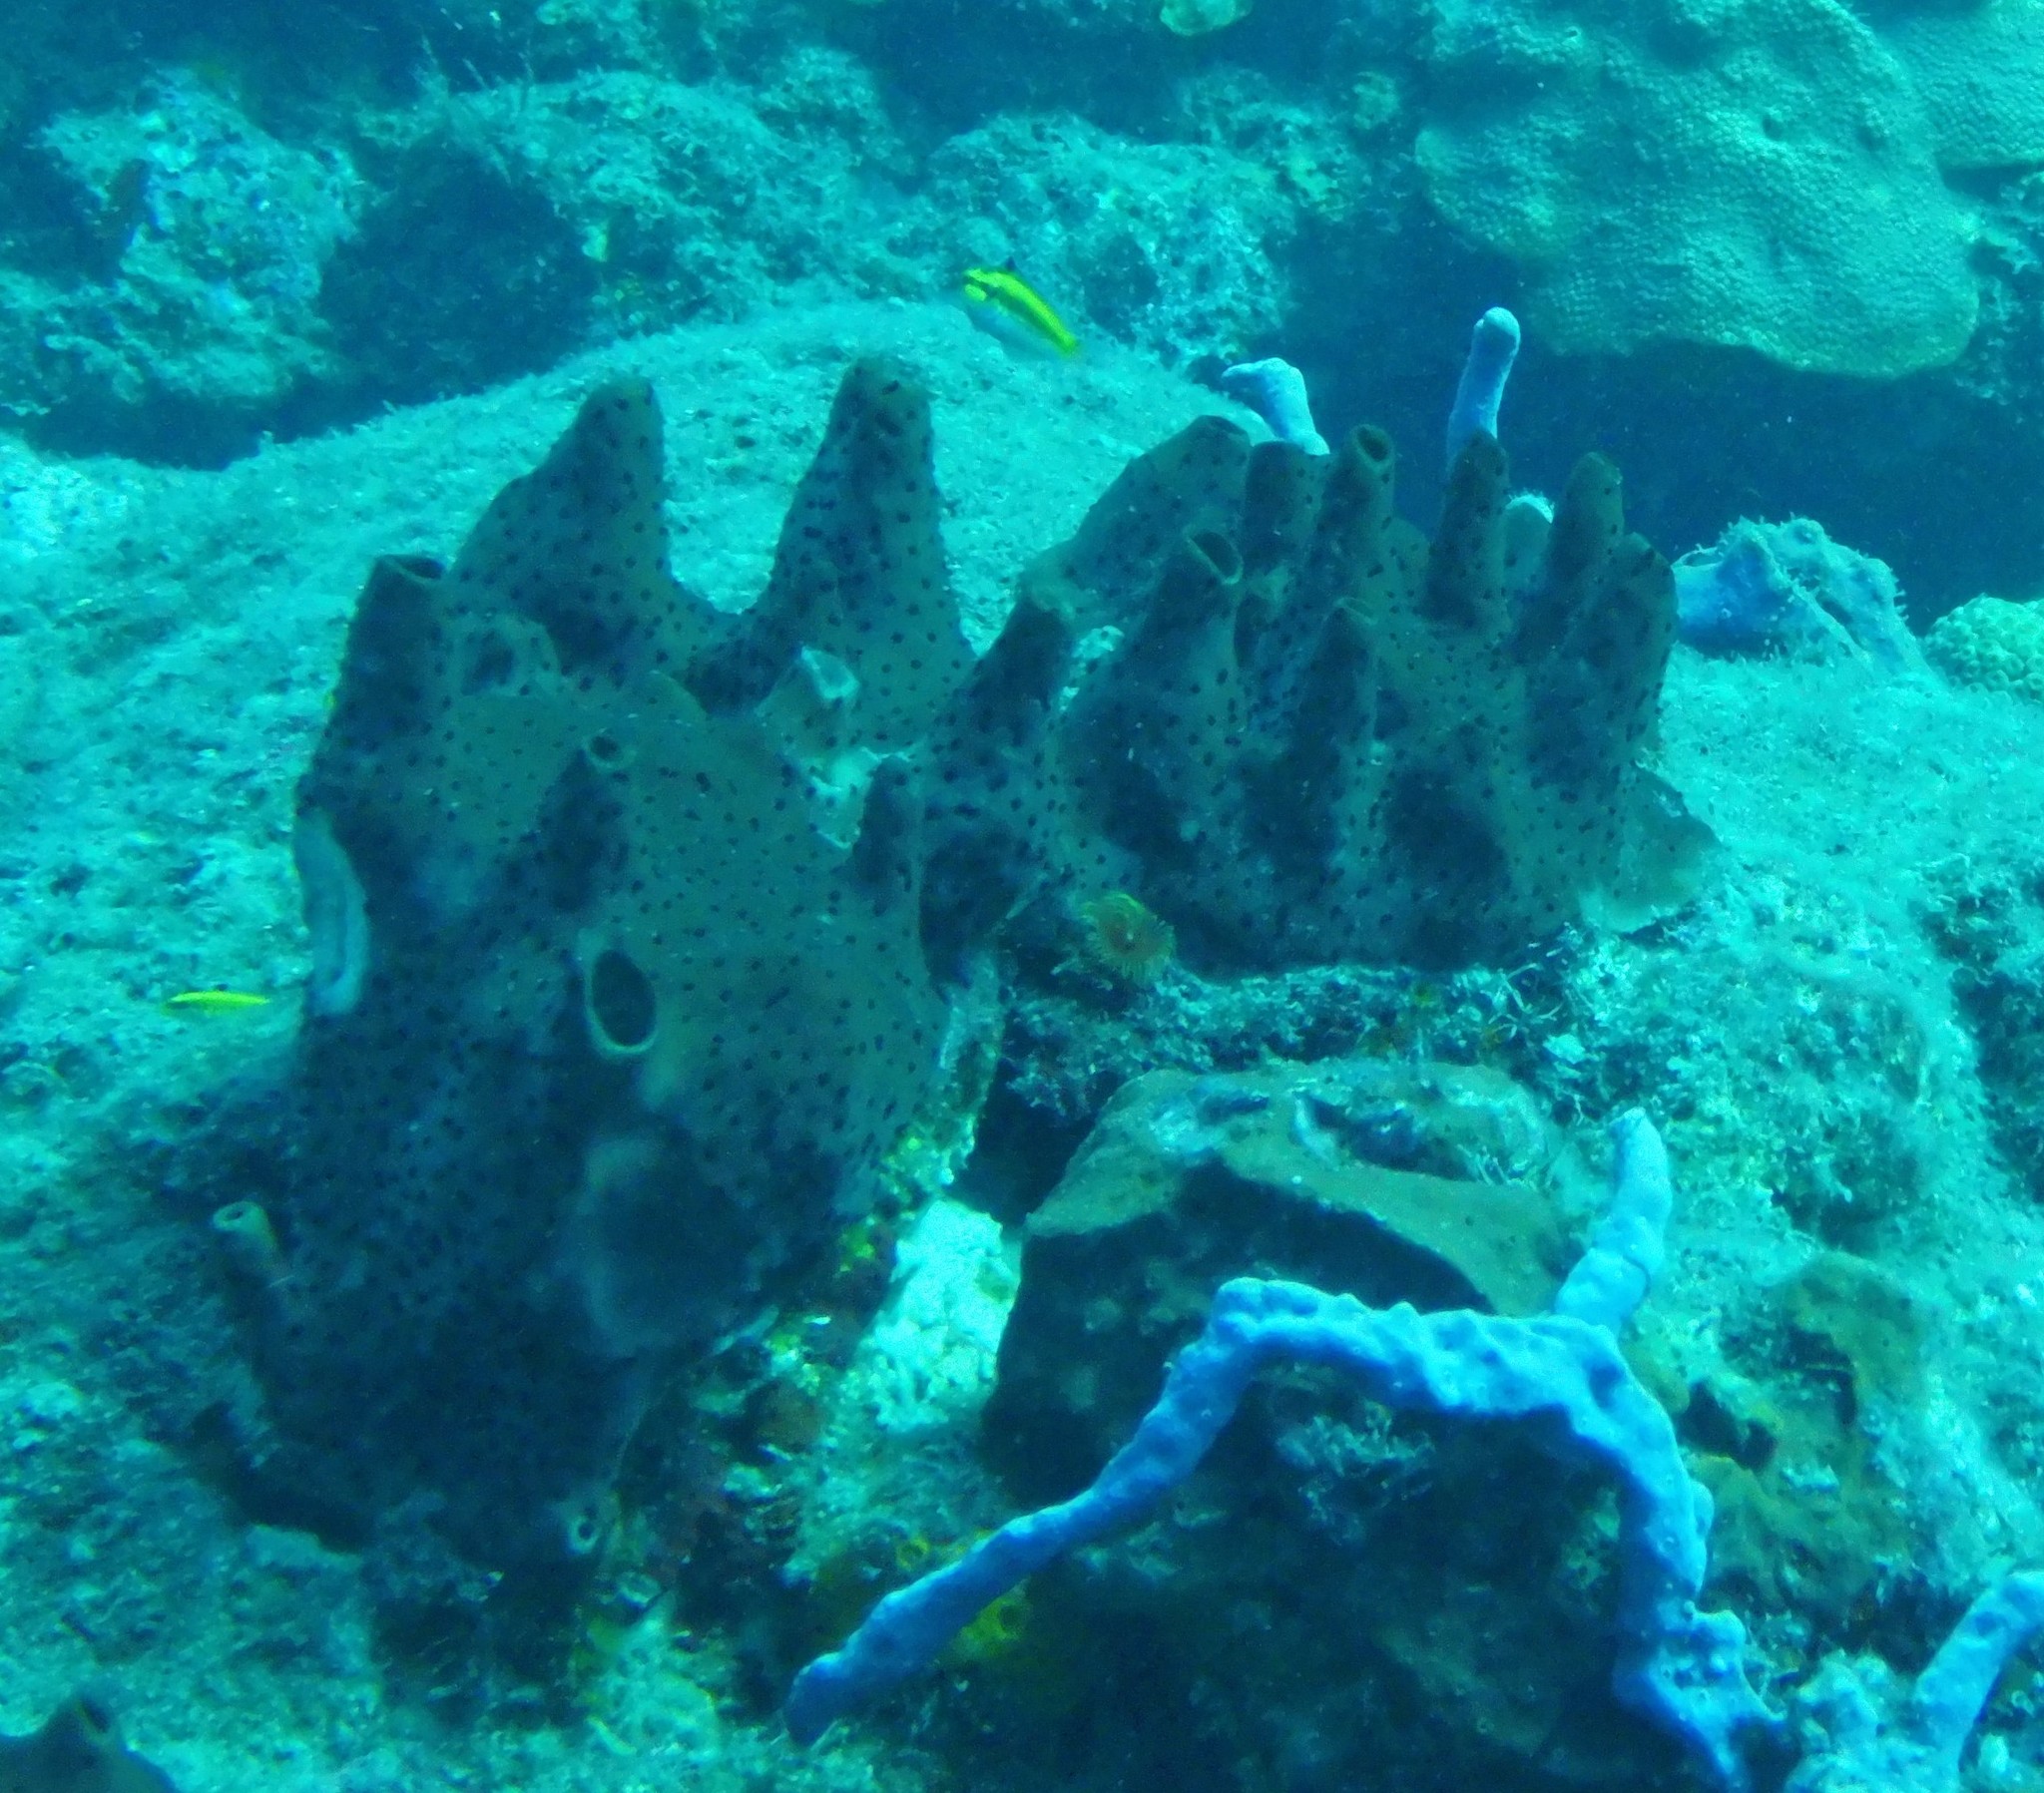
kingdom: Animalia
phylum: Porifera
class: Demospongiae
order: Scopalinida
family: Scopalinidae
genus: Svenzea
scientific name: Svenzea zeai
